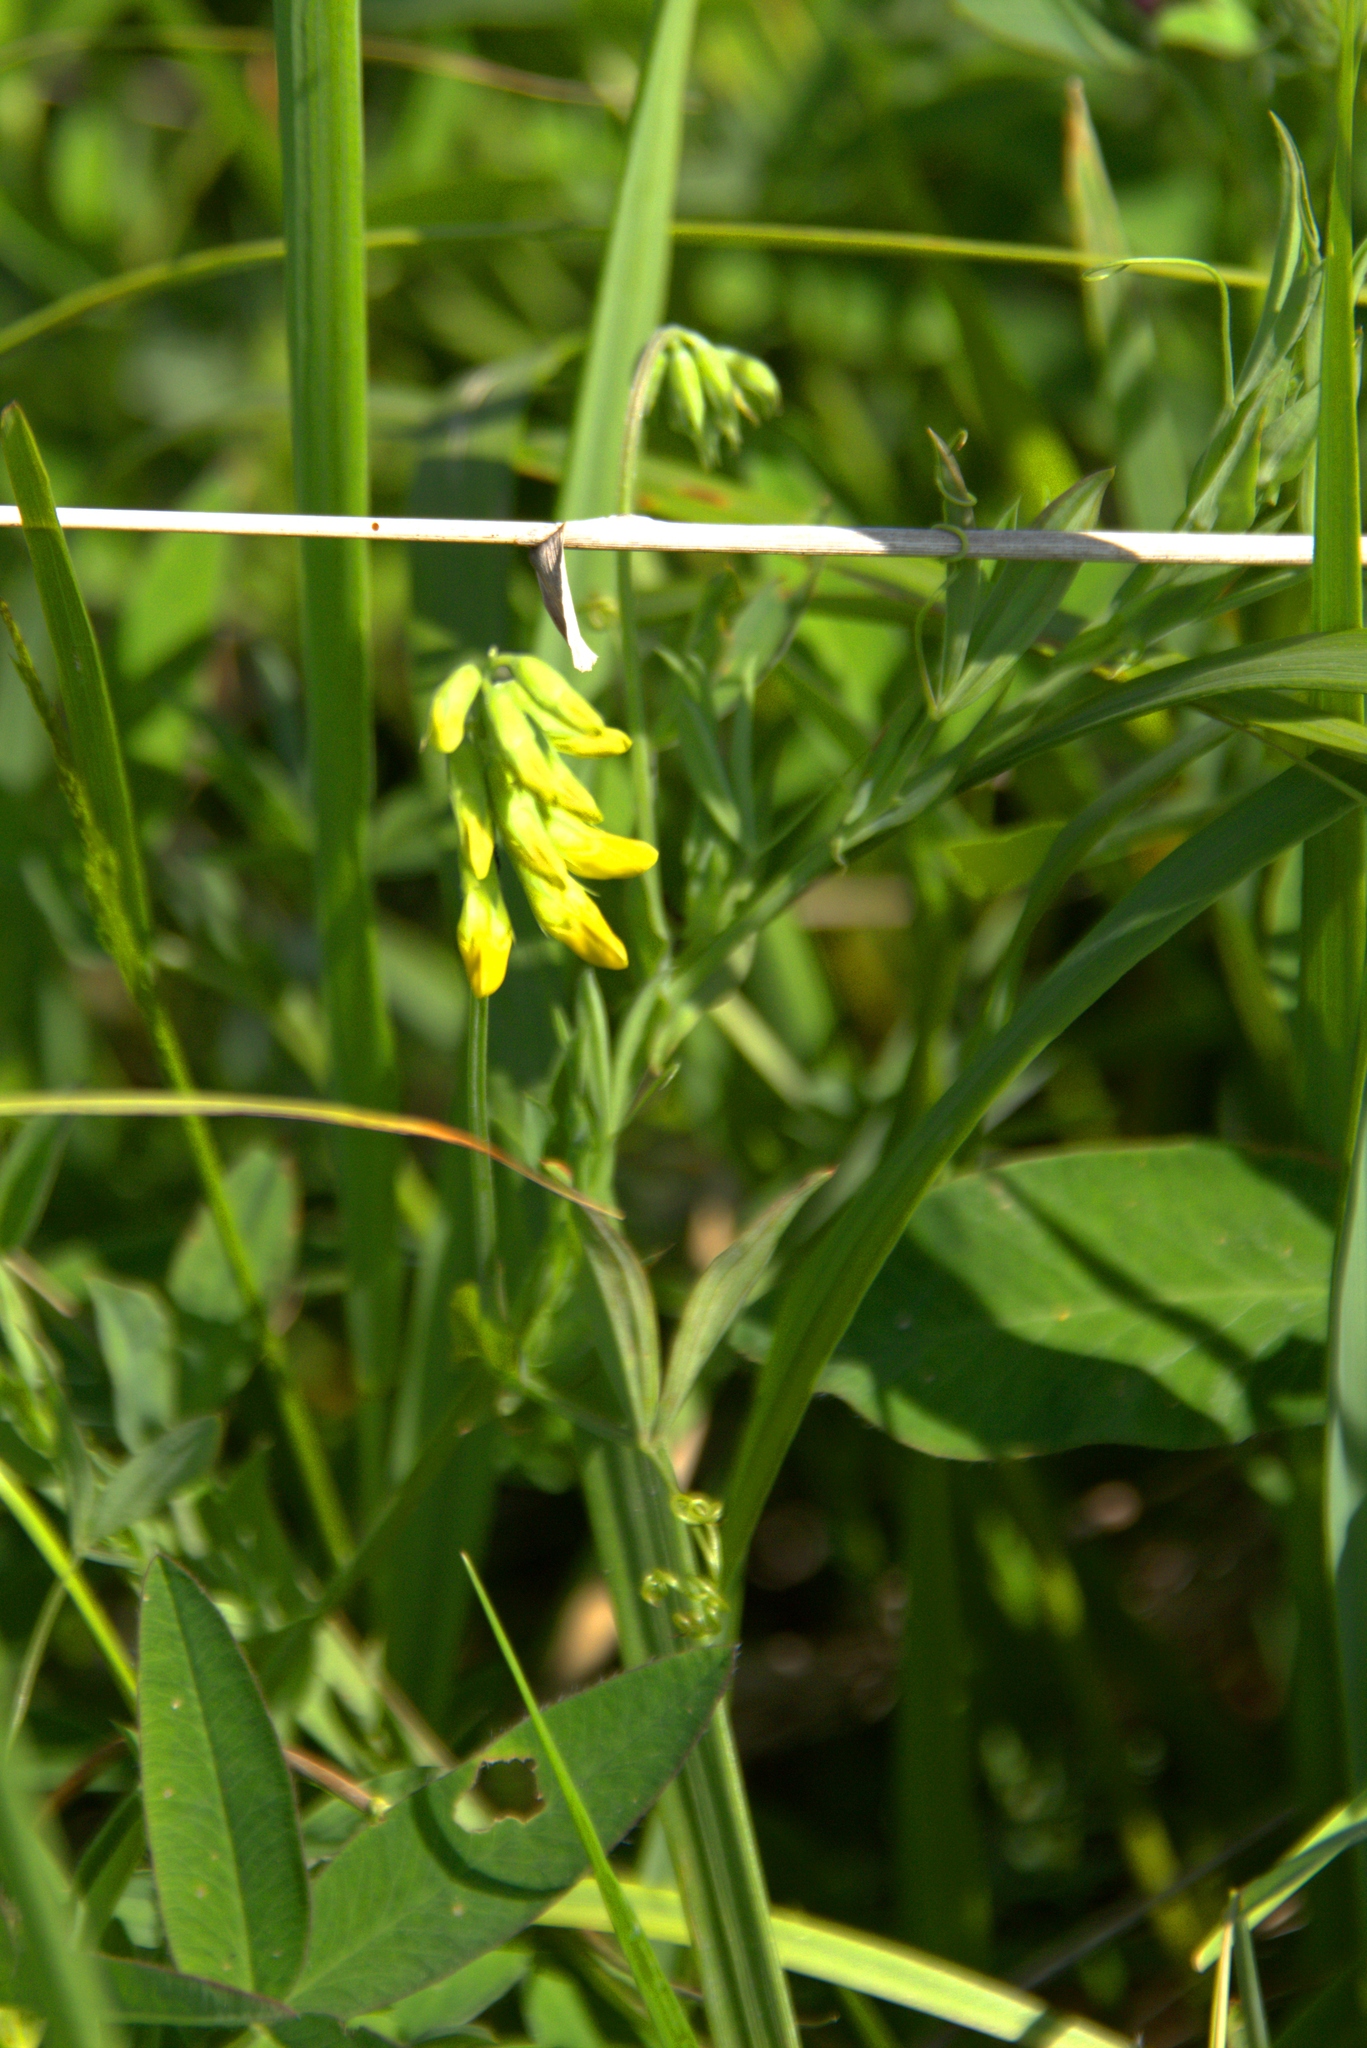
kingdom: Plantae
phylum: Tracheophyta
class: Magnoliopsida
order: Fabales
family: Fabaceae
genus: Lathyrus
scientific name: Lathyrus pratensis
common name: Meadow vetchling
